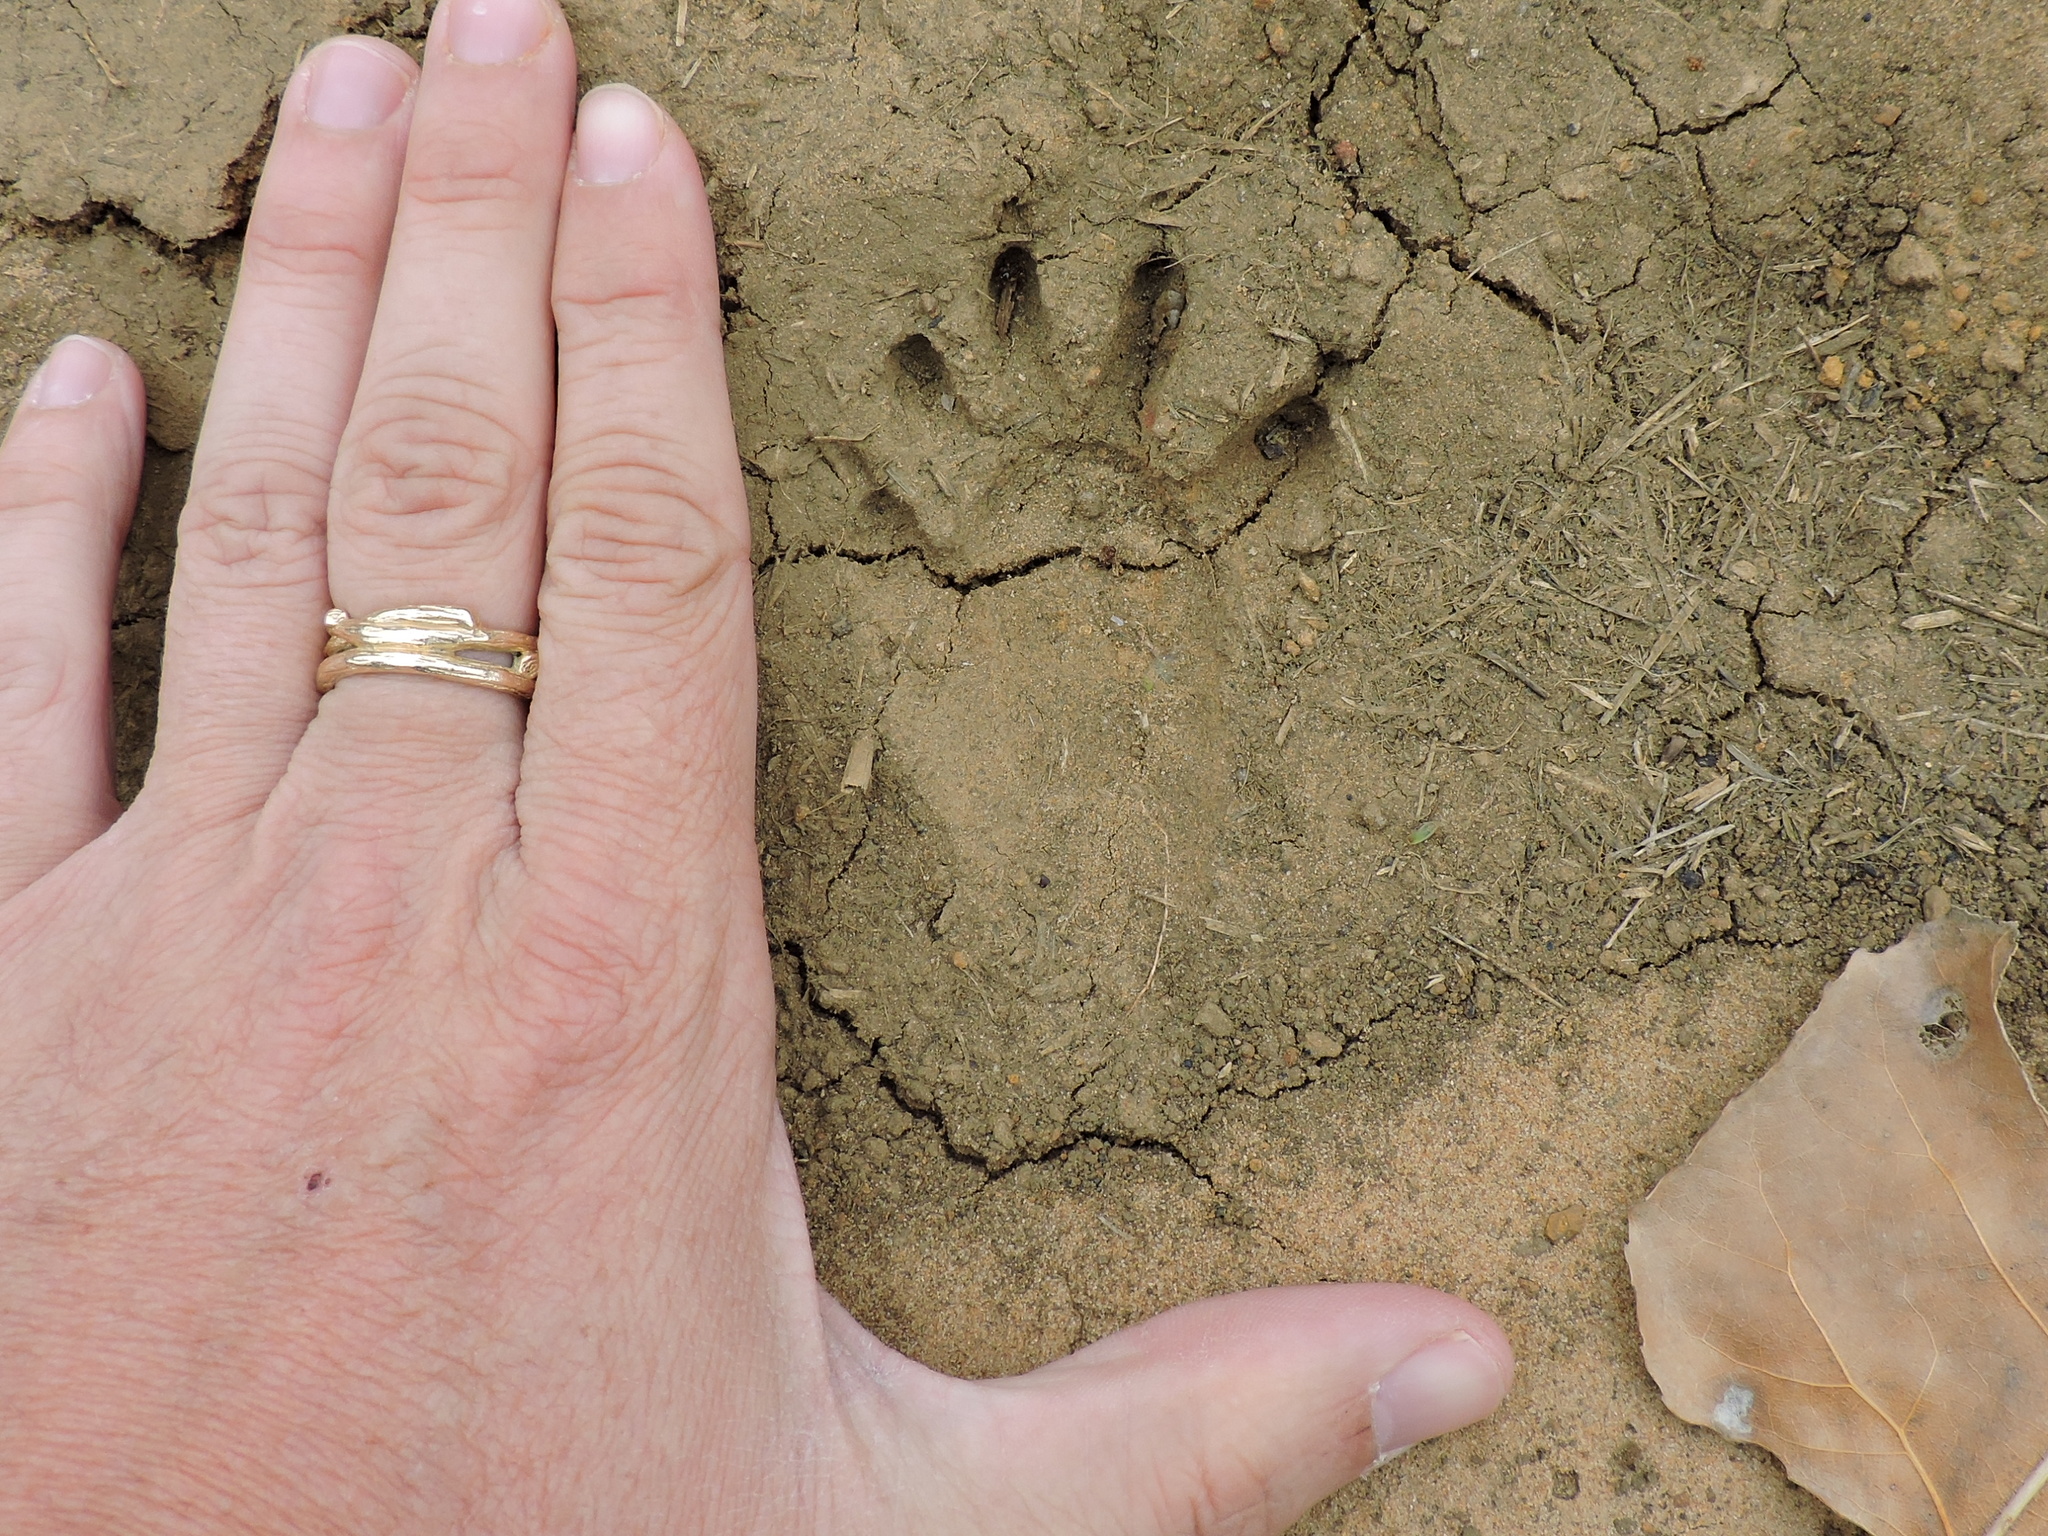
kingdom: Animalia
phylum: Chordata
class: Mammalia
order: Carnivora
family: Procyonidae
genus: Procyon
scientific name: Procyon lotor
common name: Raccoon
